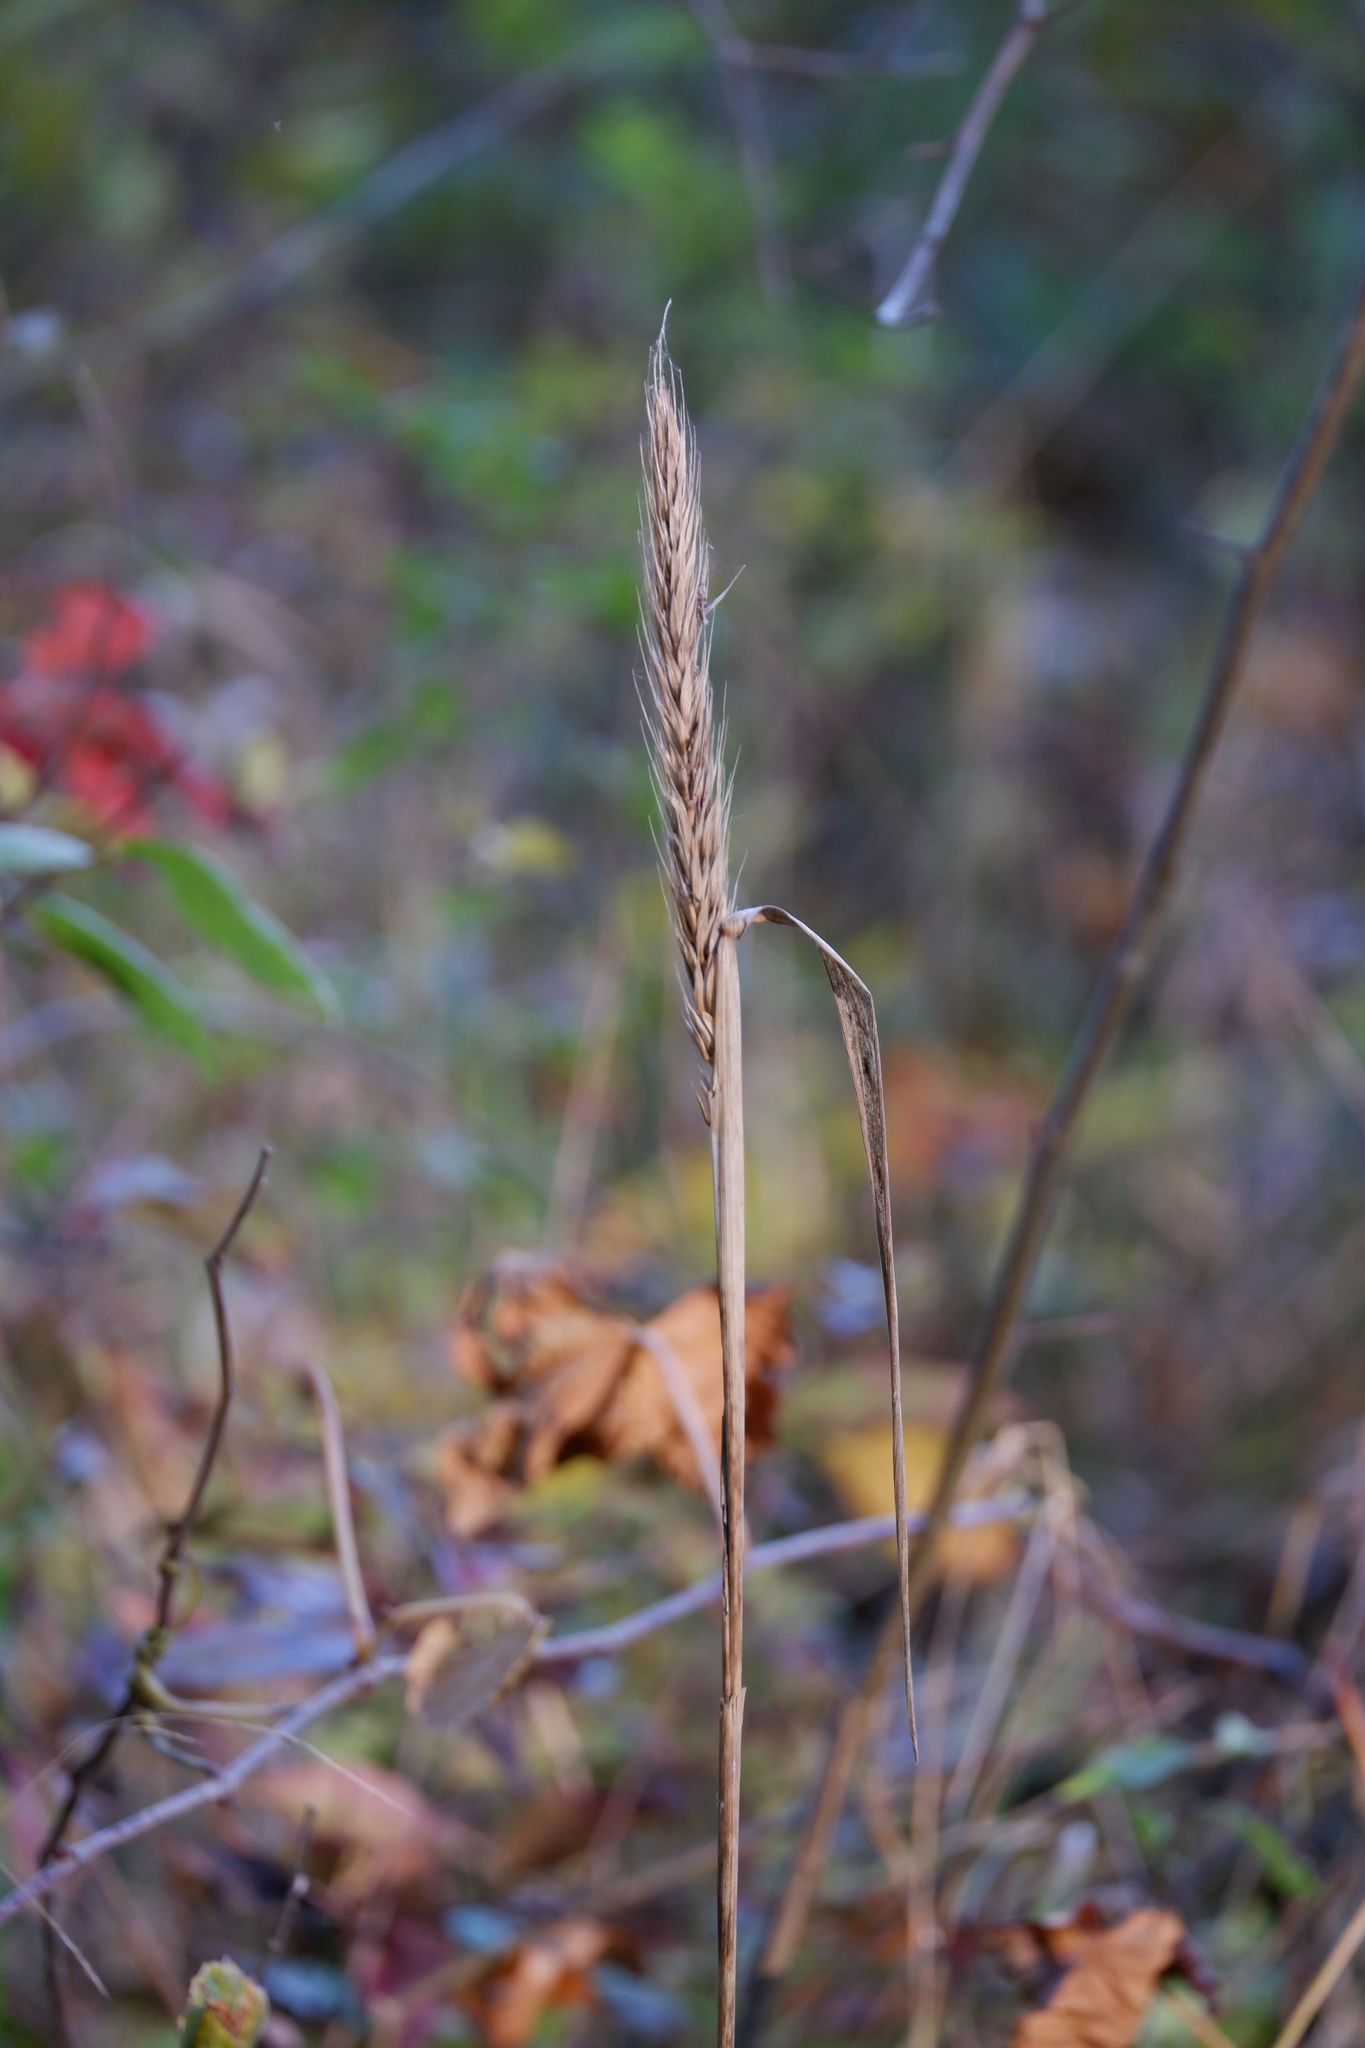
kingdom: Plantae
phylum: Tracheophyta
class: Liliopsida
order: Poales
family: Poaceae
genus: Elymus
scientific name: Elymus virginicus
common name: Common eastern wildrye
